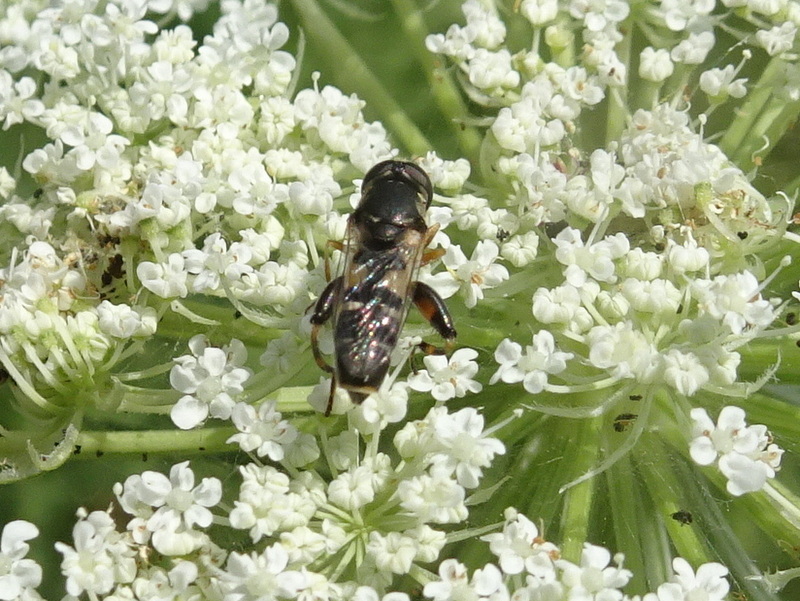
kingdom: Animalia
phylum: Arthropoda
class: Insecta
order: Diptera
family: Syrphidae
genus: Syritta
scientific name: Syritta pipiens
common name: Hover fly
